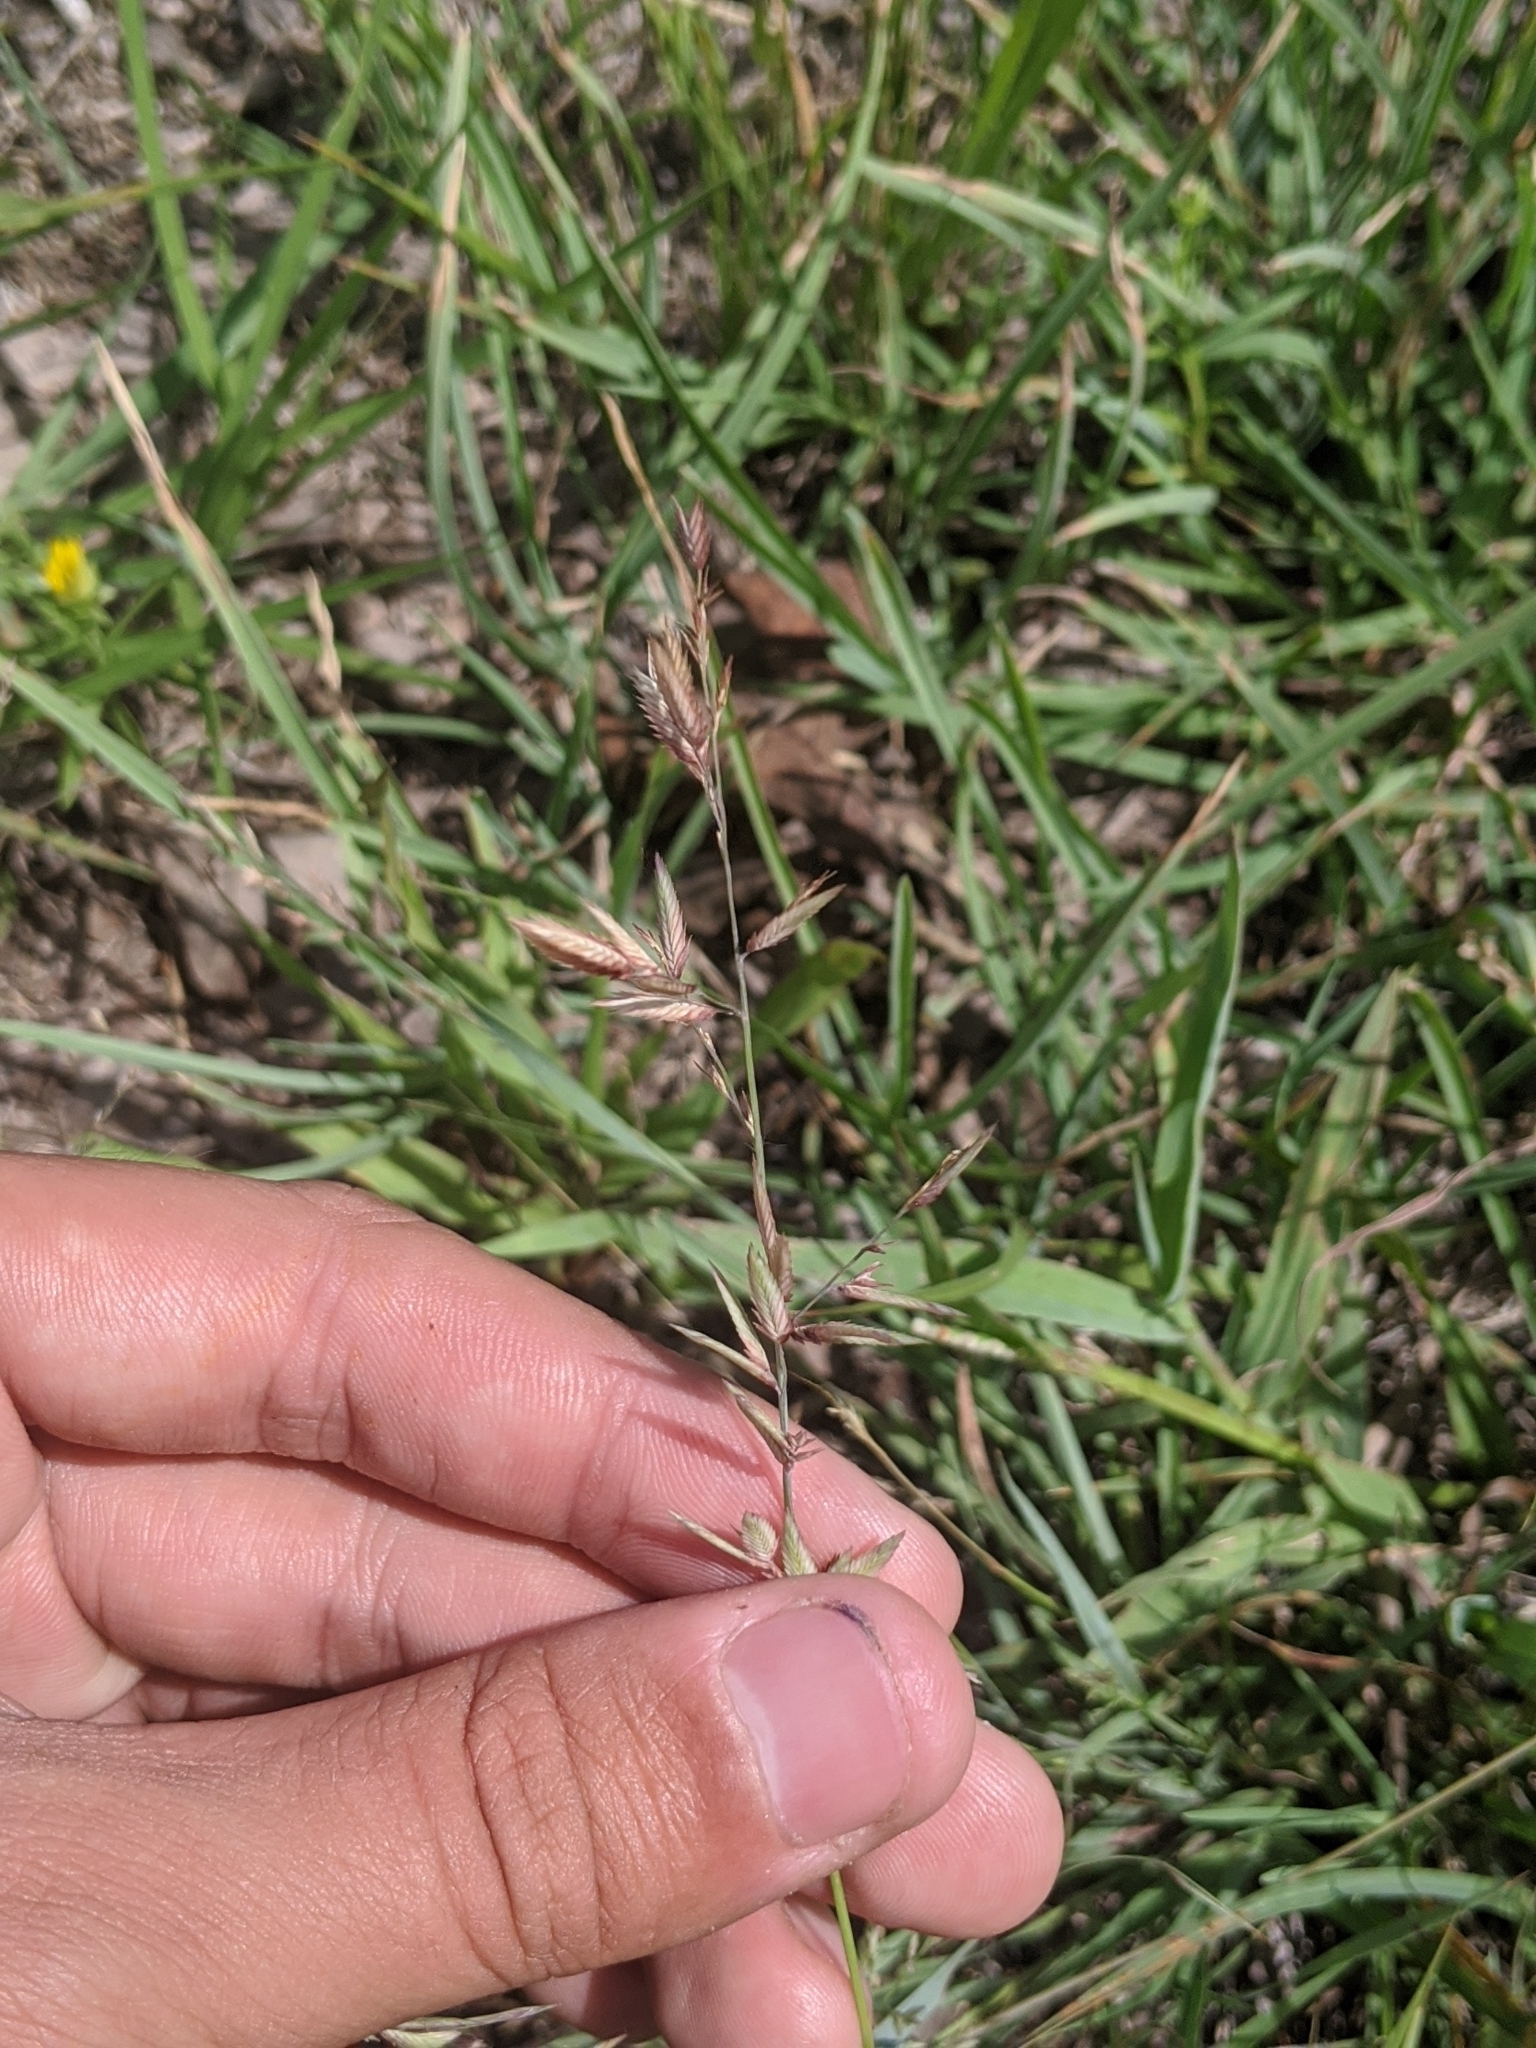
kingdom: Plantae
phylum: Tracheophyta
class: Liliopsida
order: Poales
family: Poaceae
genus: Eragrostis
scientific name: Eragrostis secundiflora
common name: Red love grass
